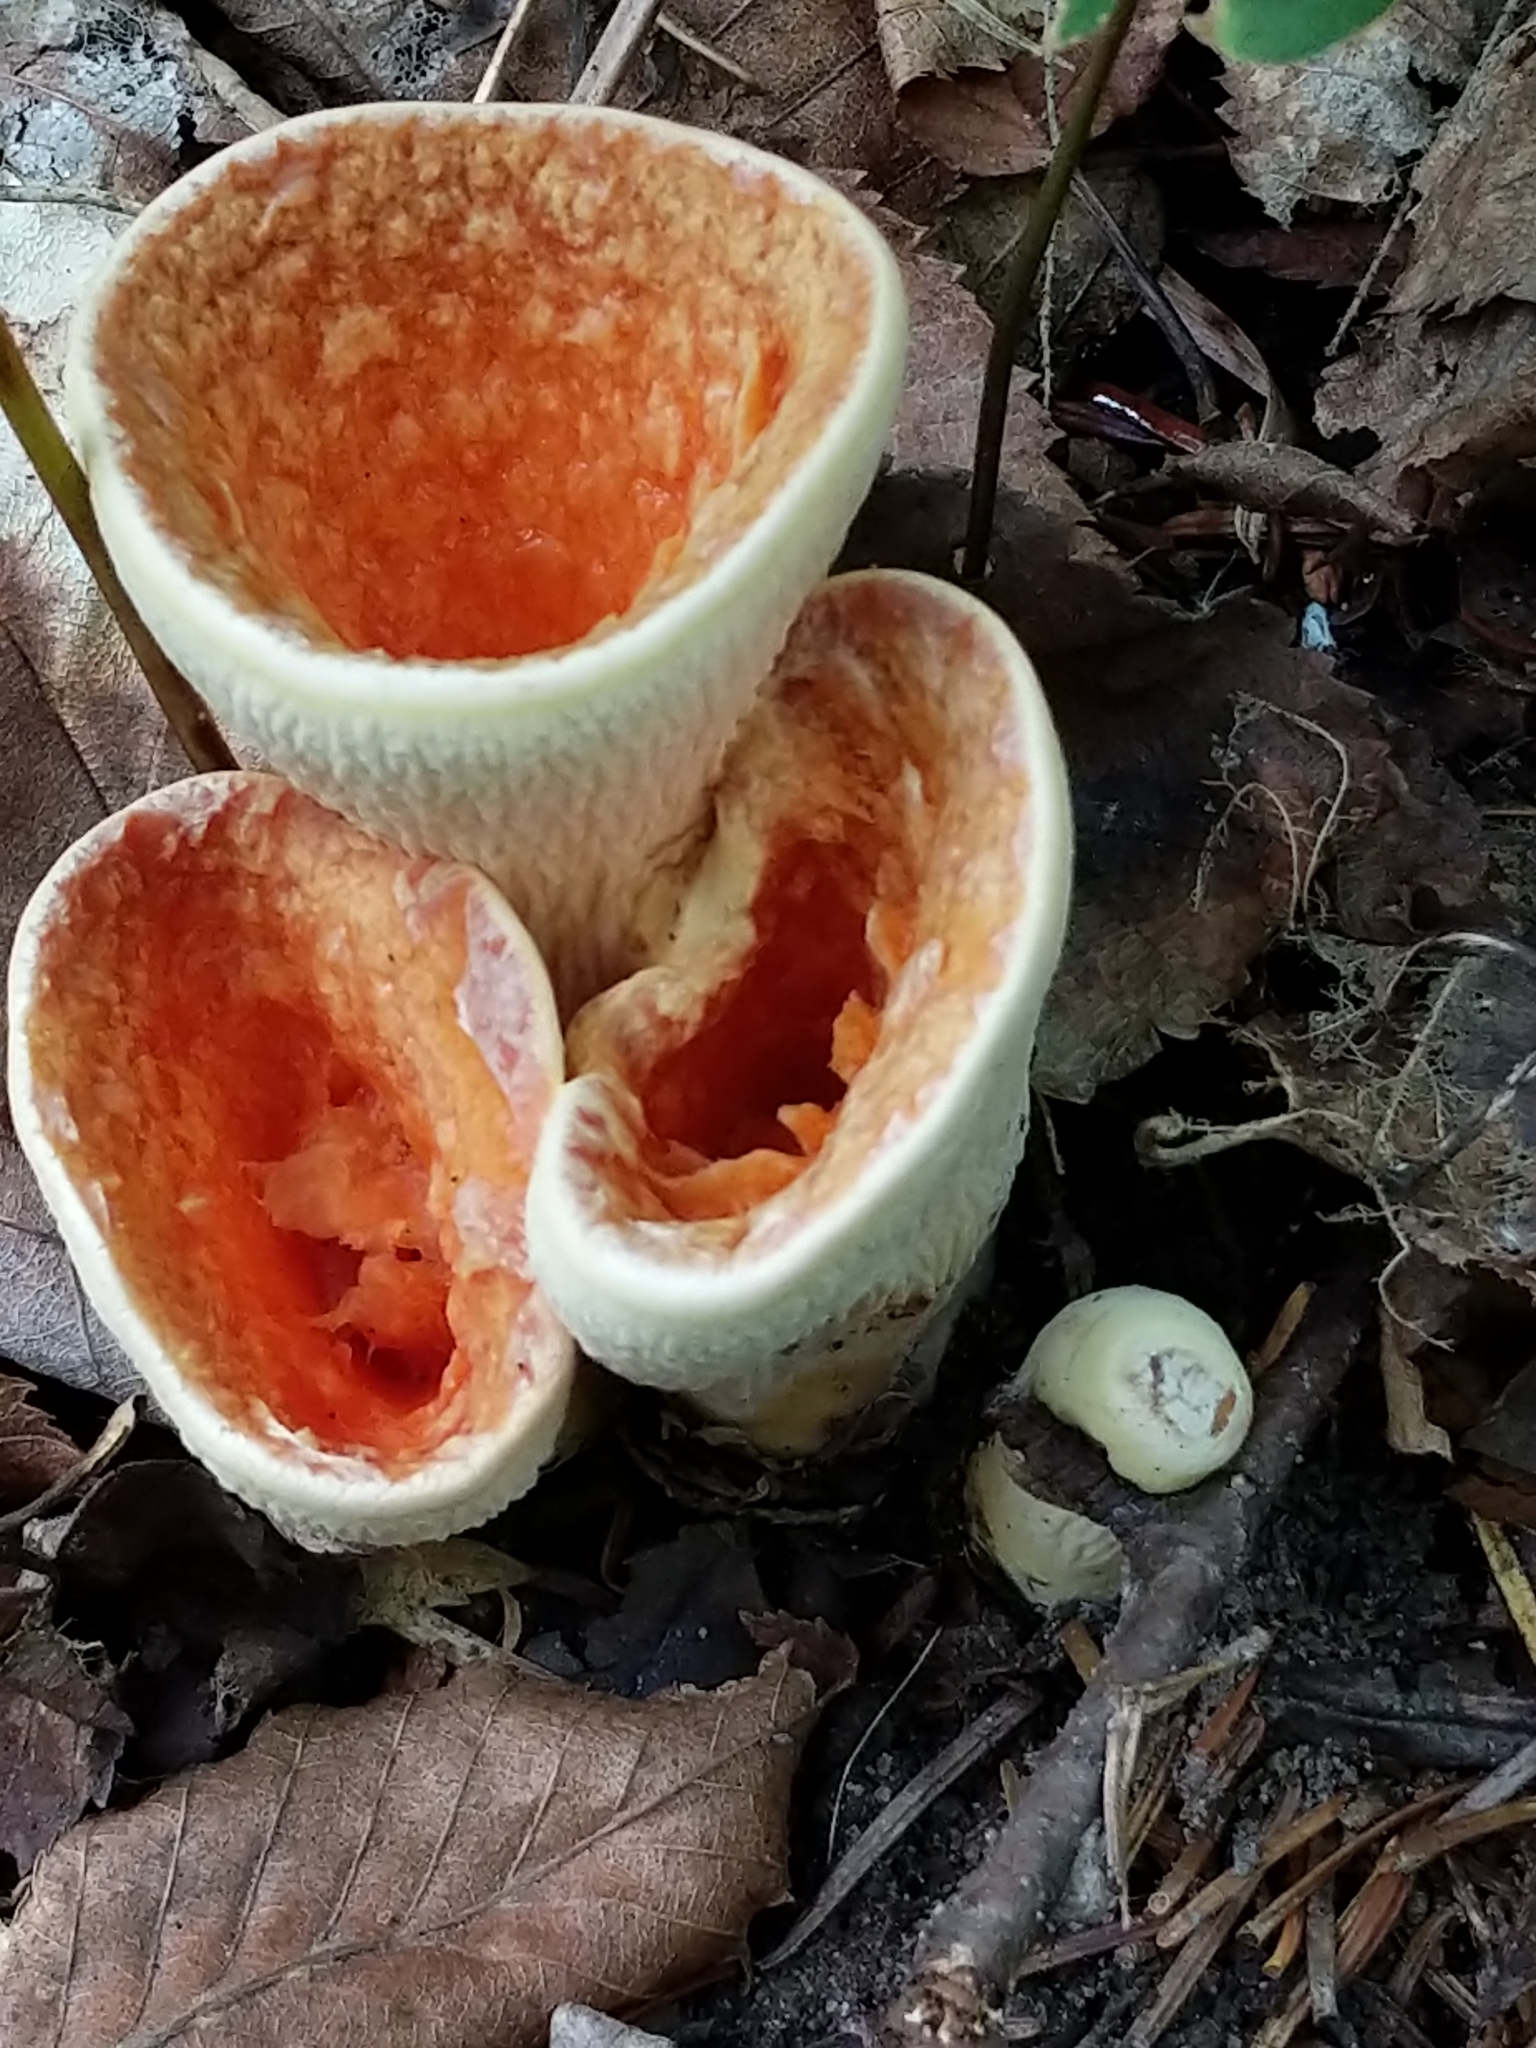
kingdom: Fungi
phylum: Basidiomycota
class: Agaricomycetes
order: Gomphales
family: Gomphaceae
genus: Turbinellus
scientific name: Turbinellus floccosus
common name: Scaly chanterelle
